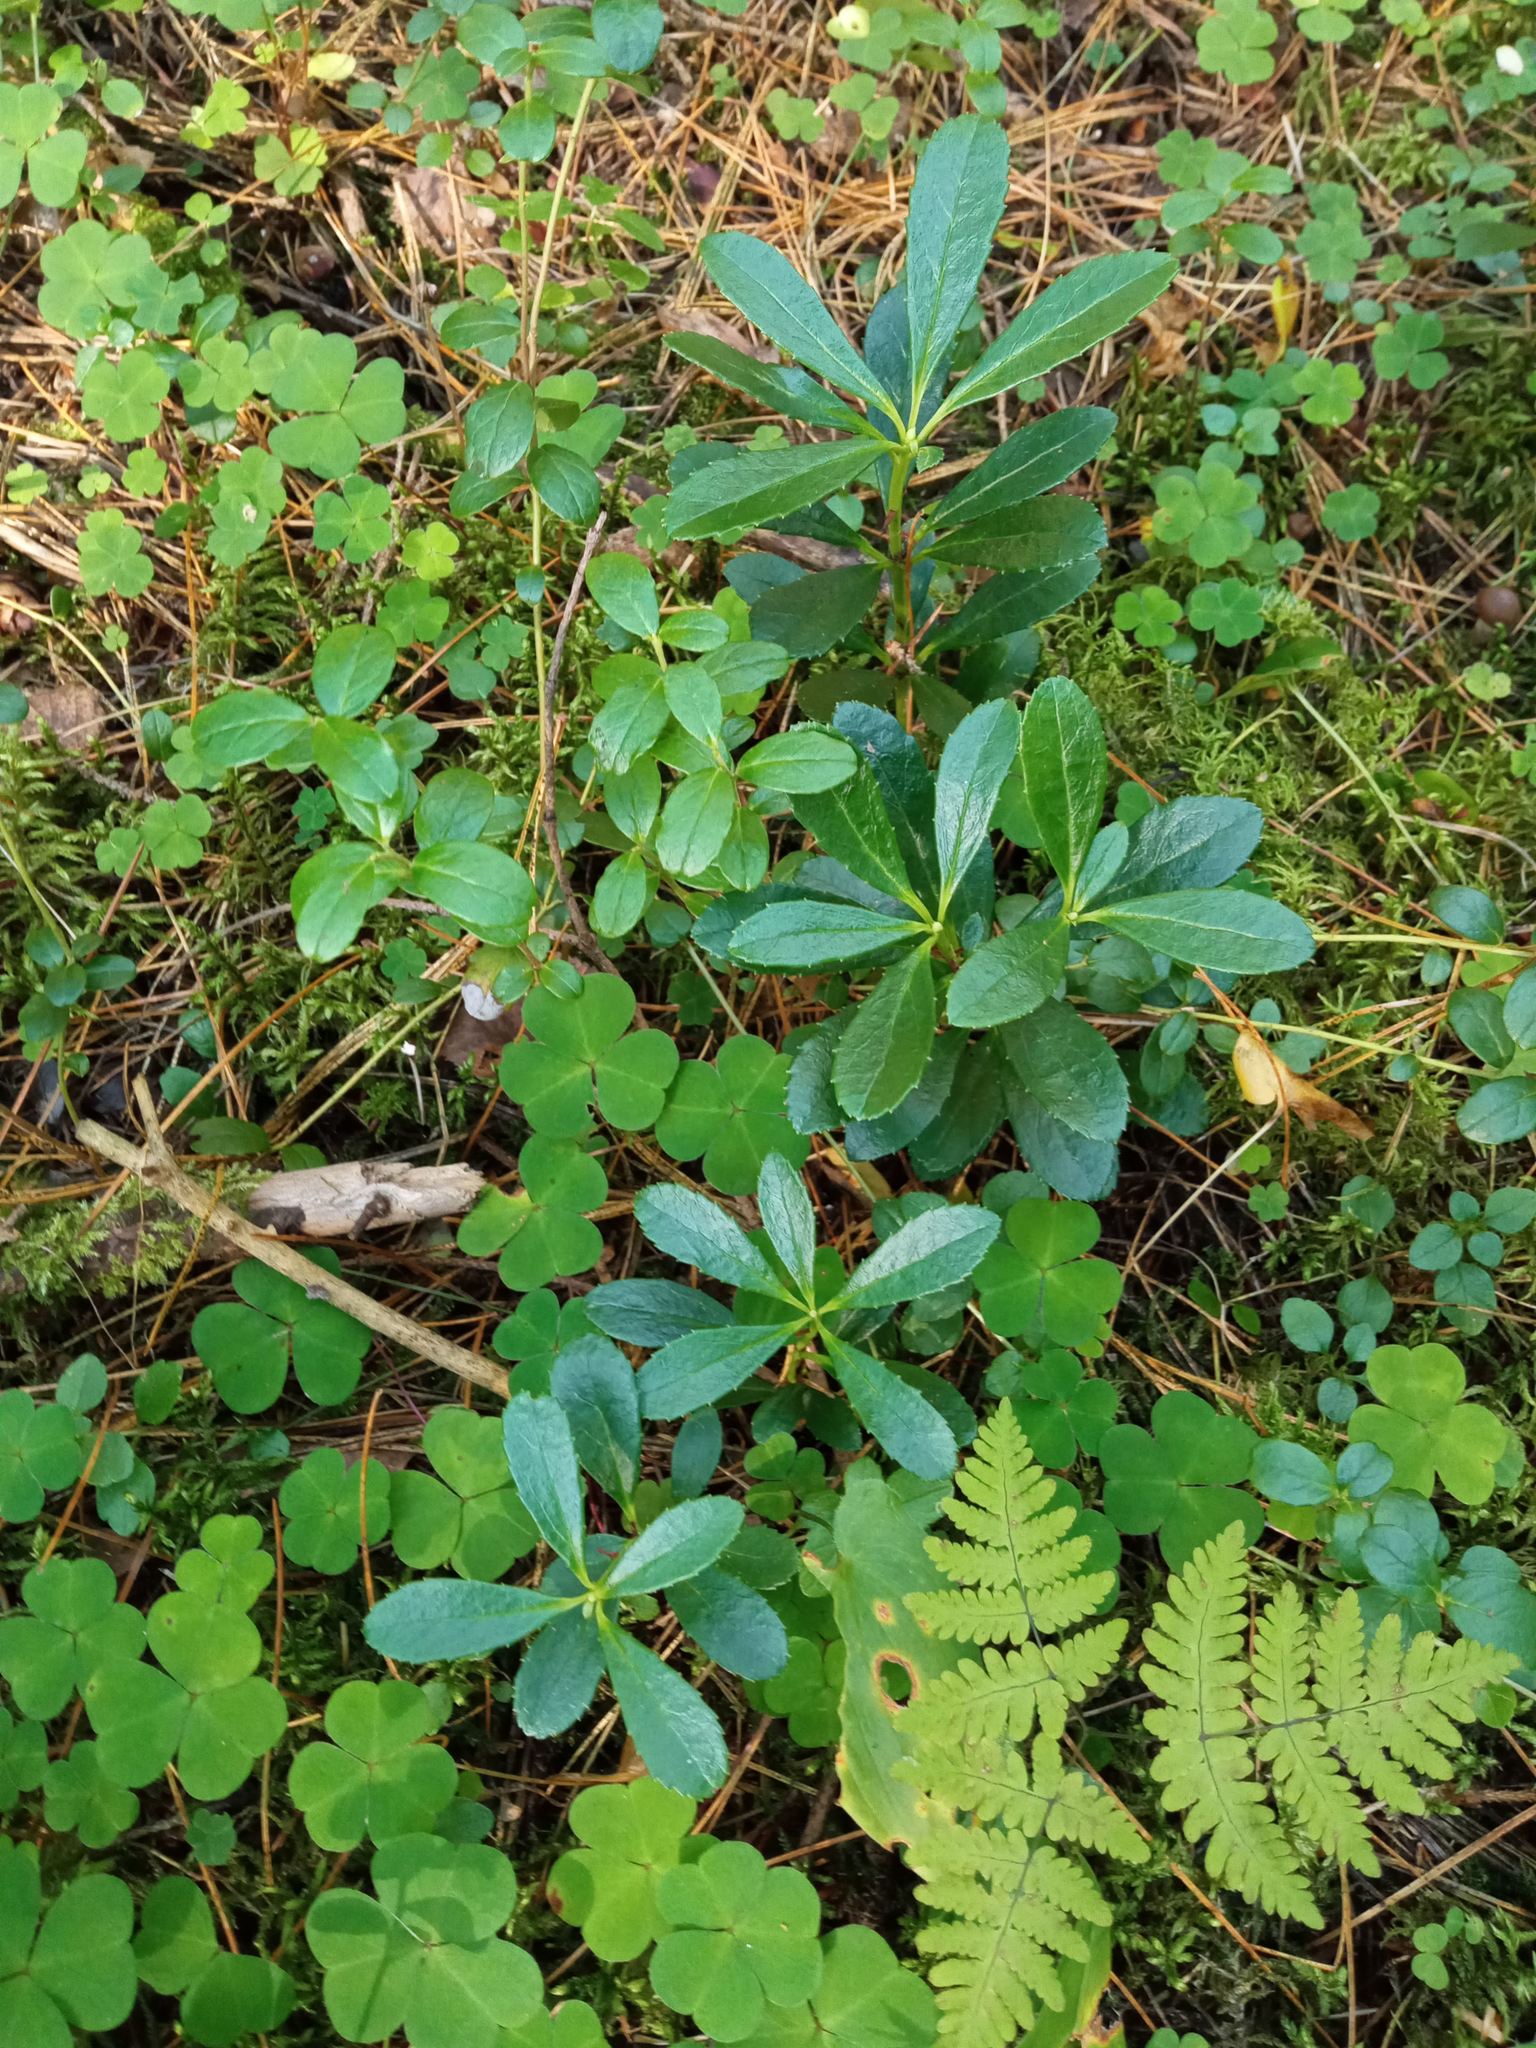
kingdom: Plantae
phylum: Tracheophyta
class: Magnoliopsida
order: Ericales
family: Ericaceae
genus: Chimaphila
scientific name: Chimaphila umbellata
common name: Pipsissewa
